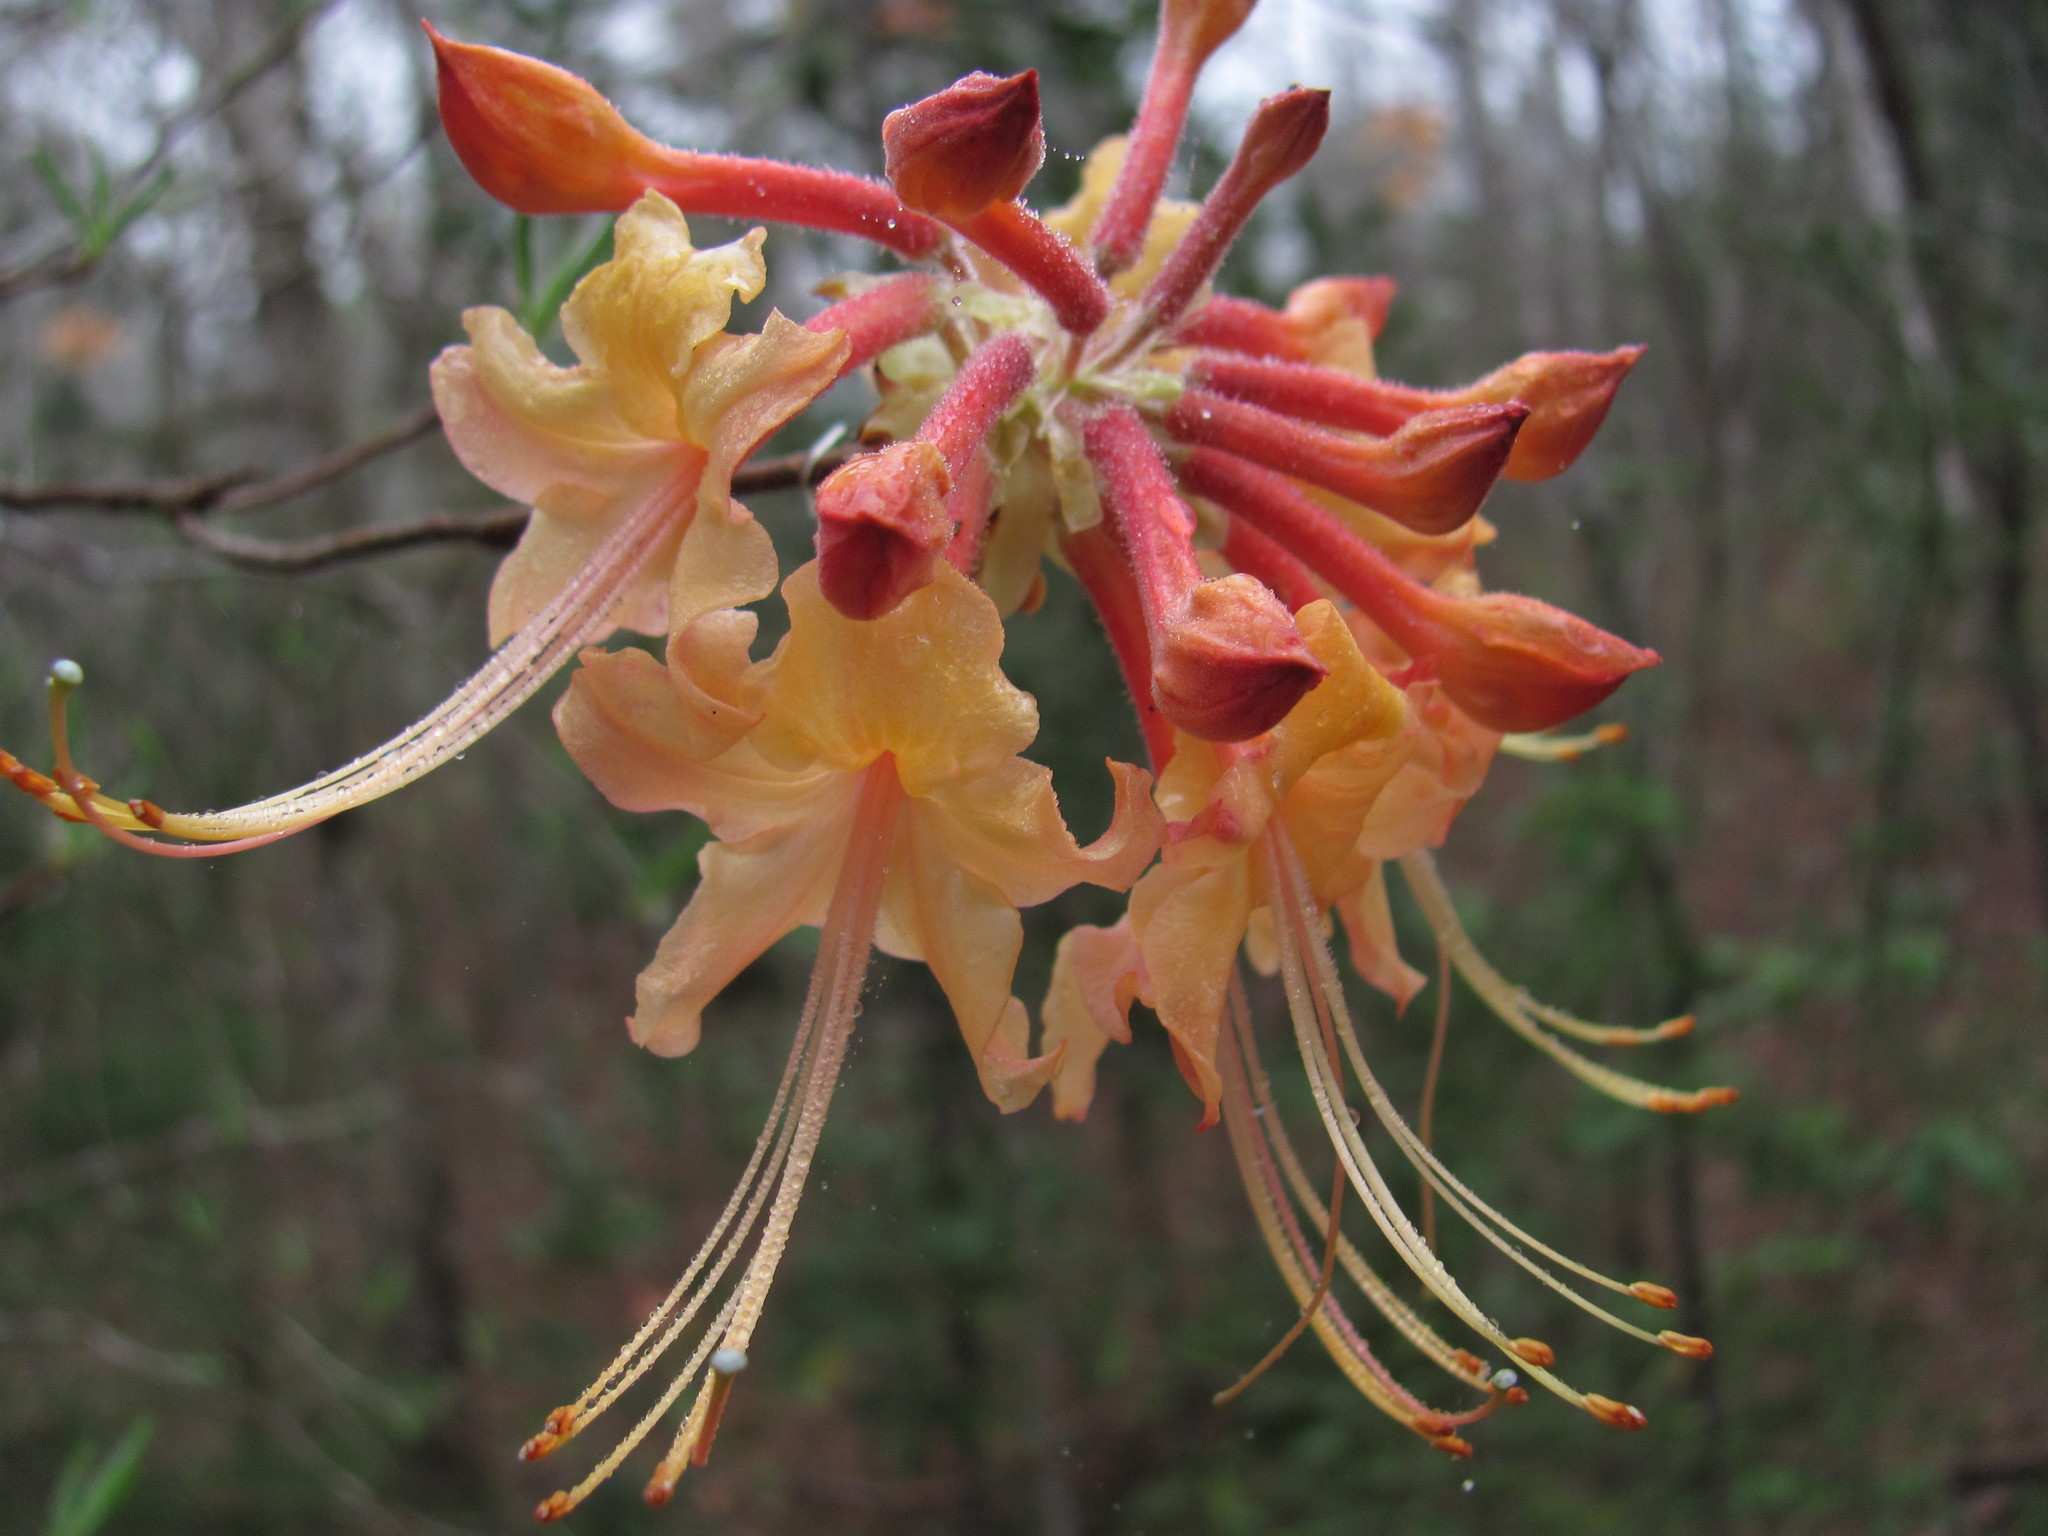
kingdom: Plantae
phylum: Tracheophyta
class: Magnoliopsida
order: Ericales
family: Ericaceae
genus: Rhododendron
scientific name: Rhododendron austrinum
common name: Florida azalea
